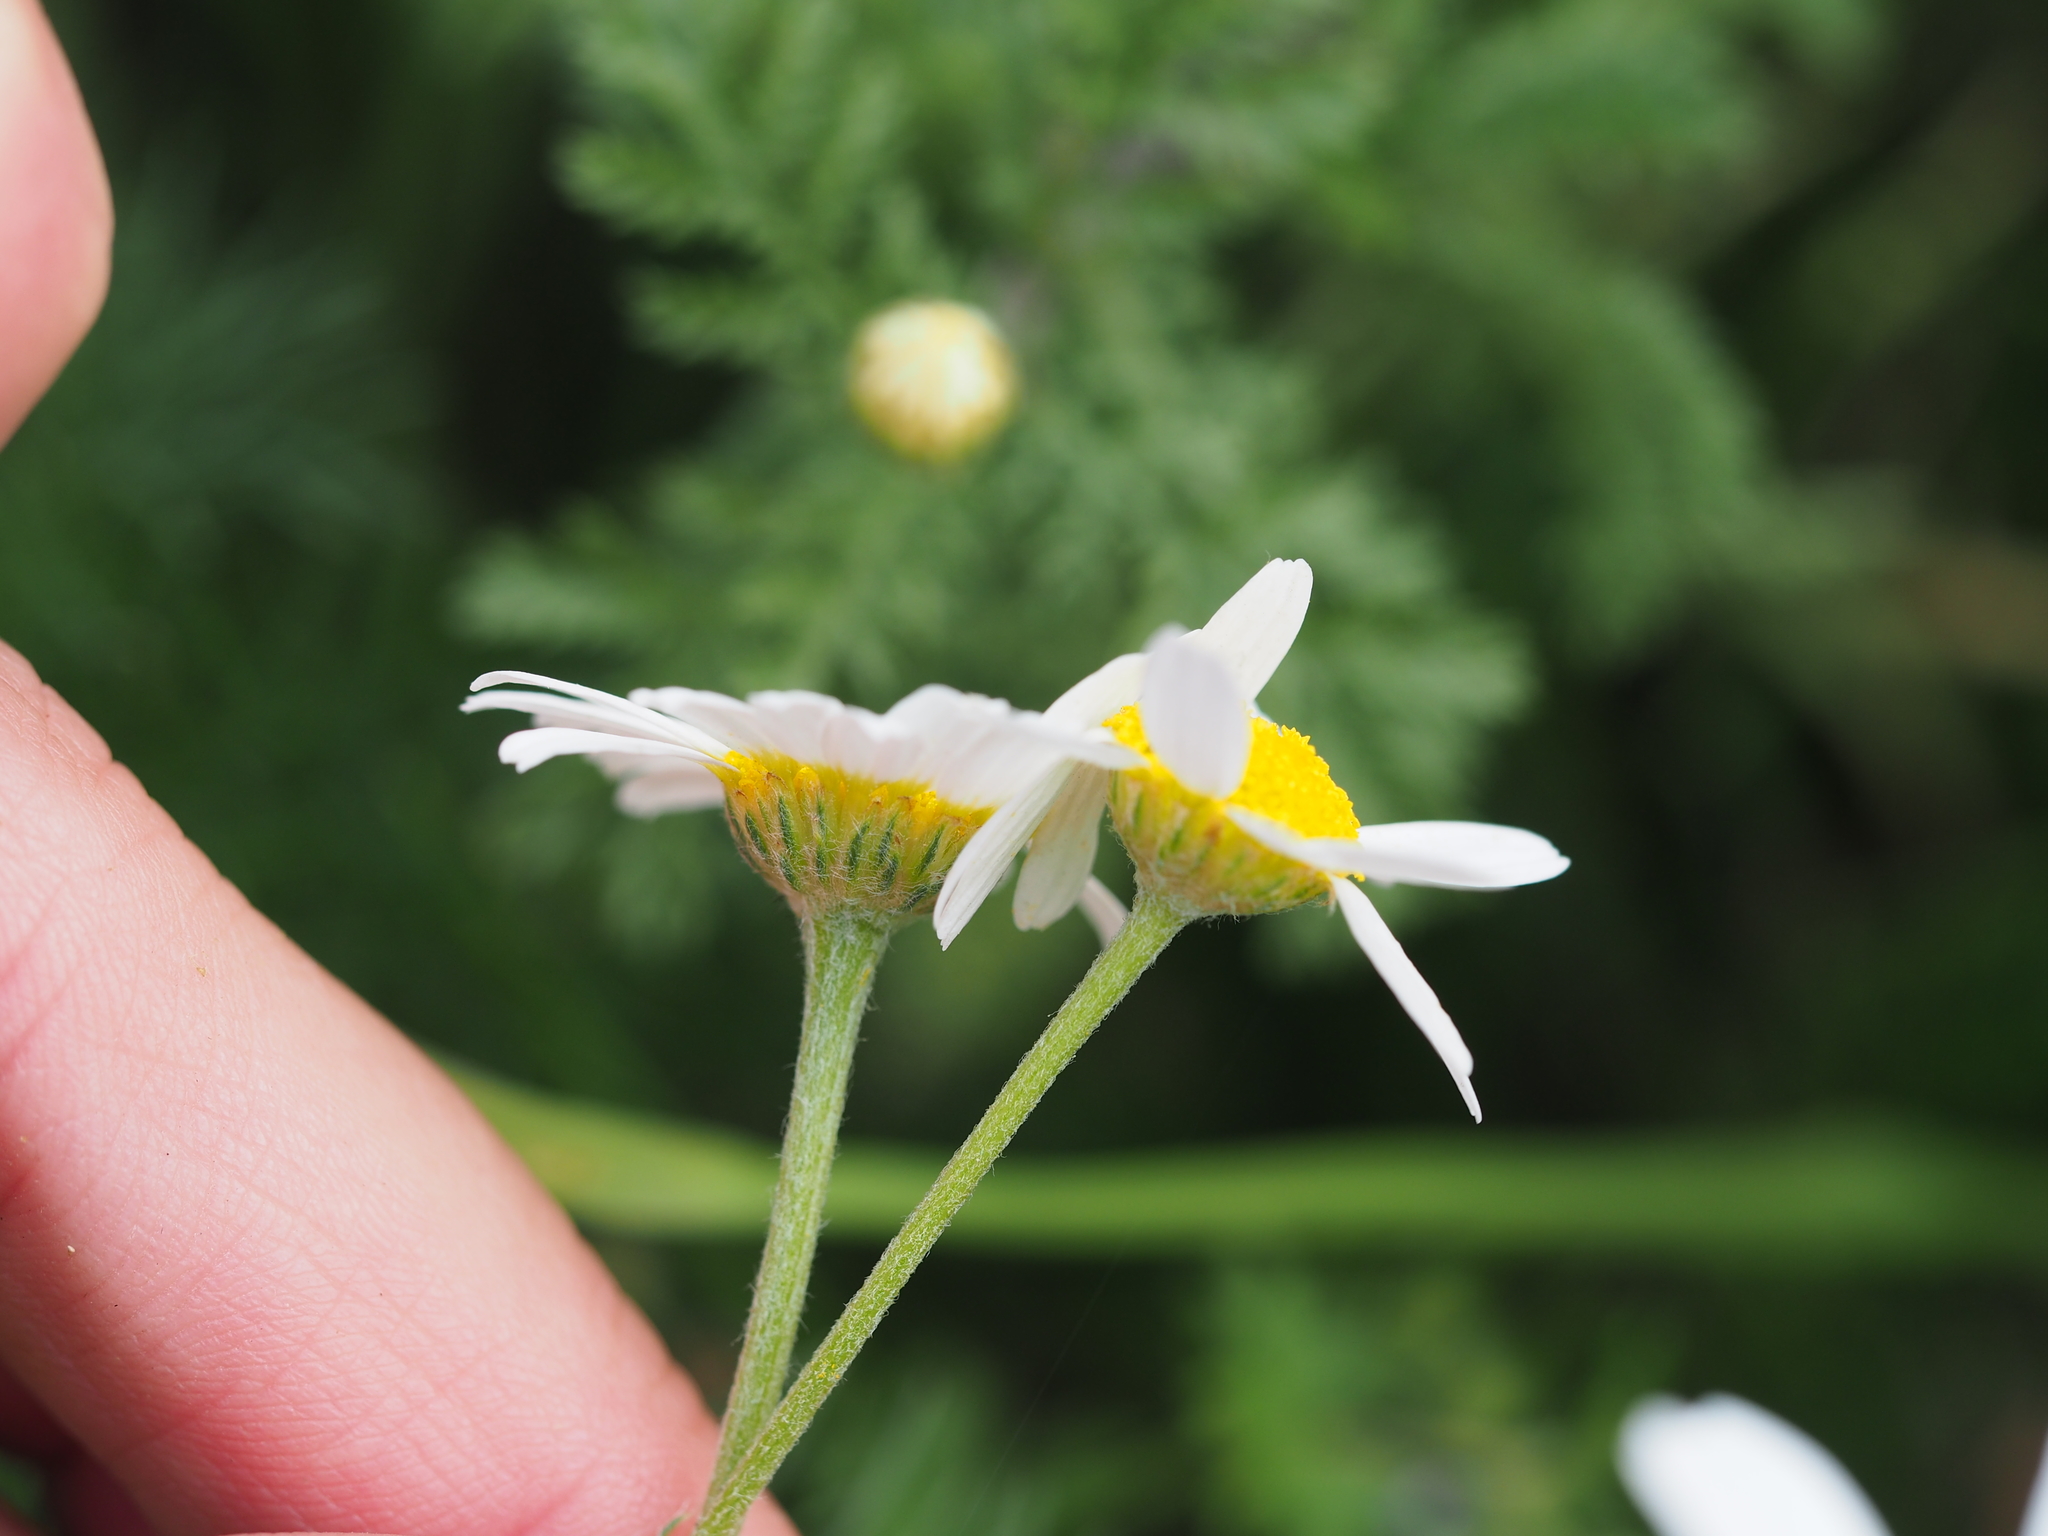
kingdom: Plantae
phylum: Tracheophyta
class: Magnoliopsida
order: Asterales
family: Asteraceae
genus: Cota
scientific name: Cota austriaca
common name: Austrian chamomile
